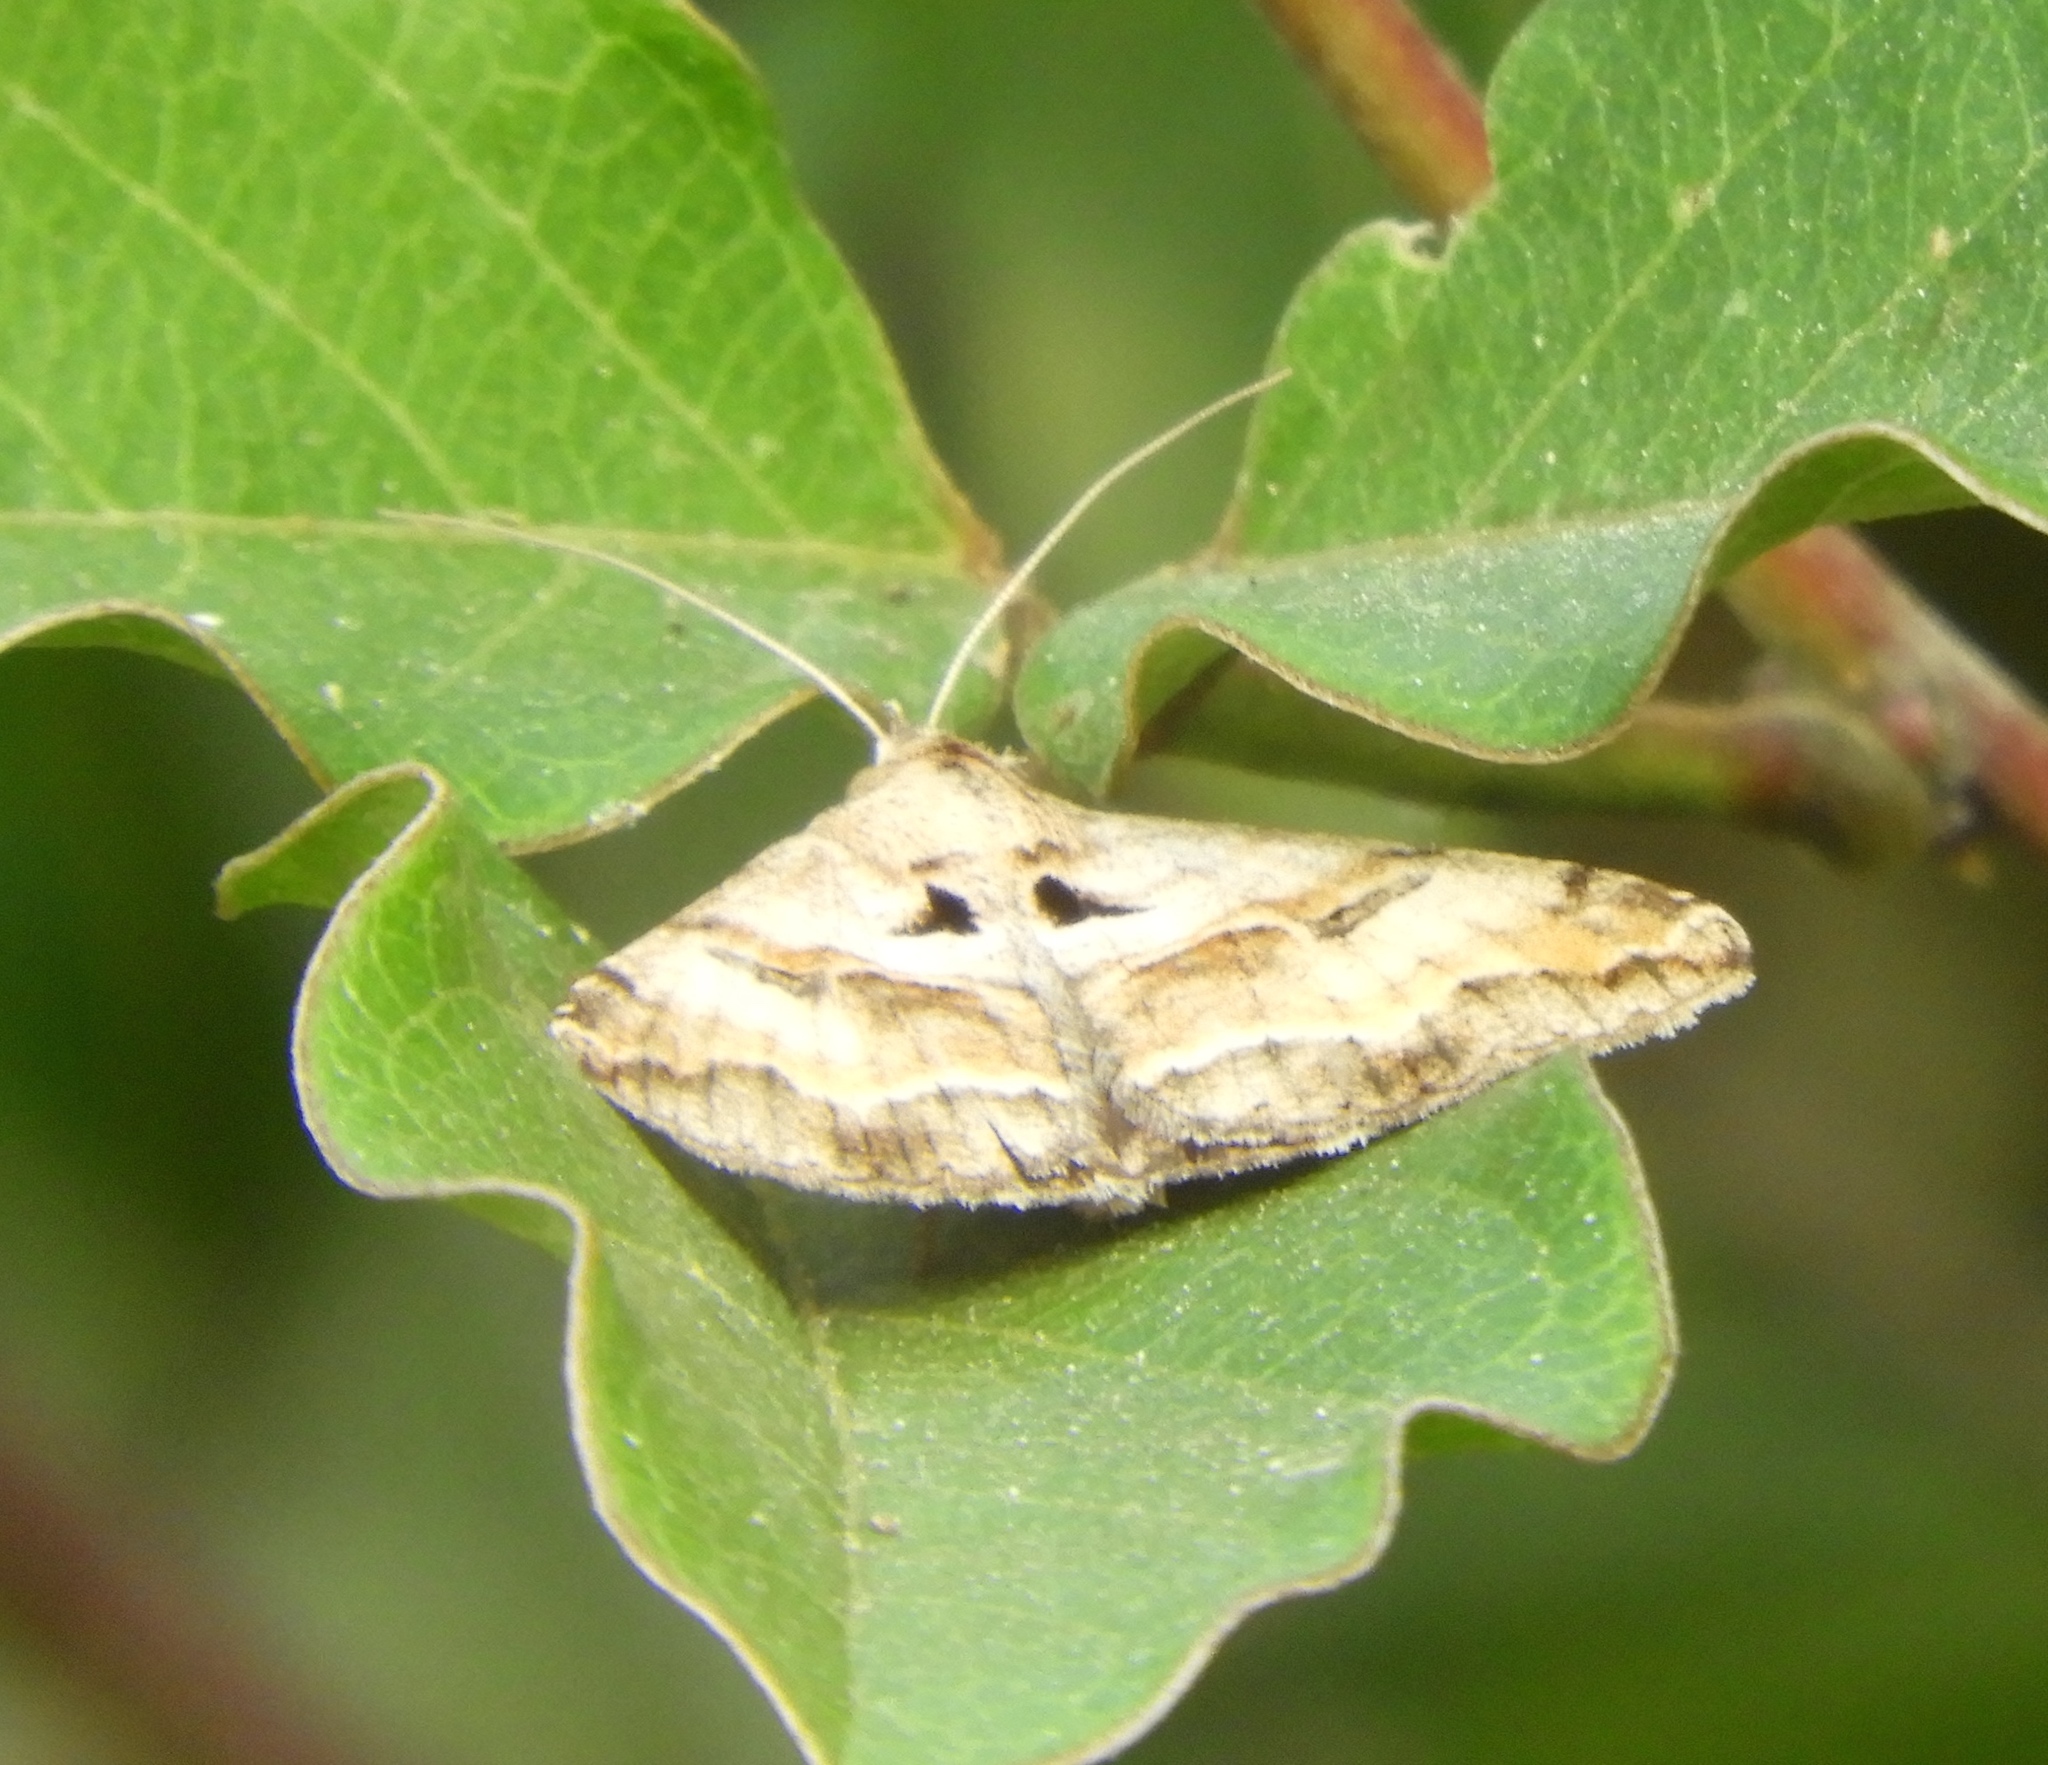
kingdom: Animalia
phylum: Arthropoda
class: Insecta
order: Lepidoptera
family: Erebidae
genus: Melipotis
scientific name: Melipotis cellaris
